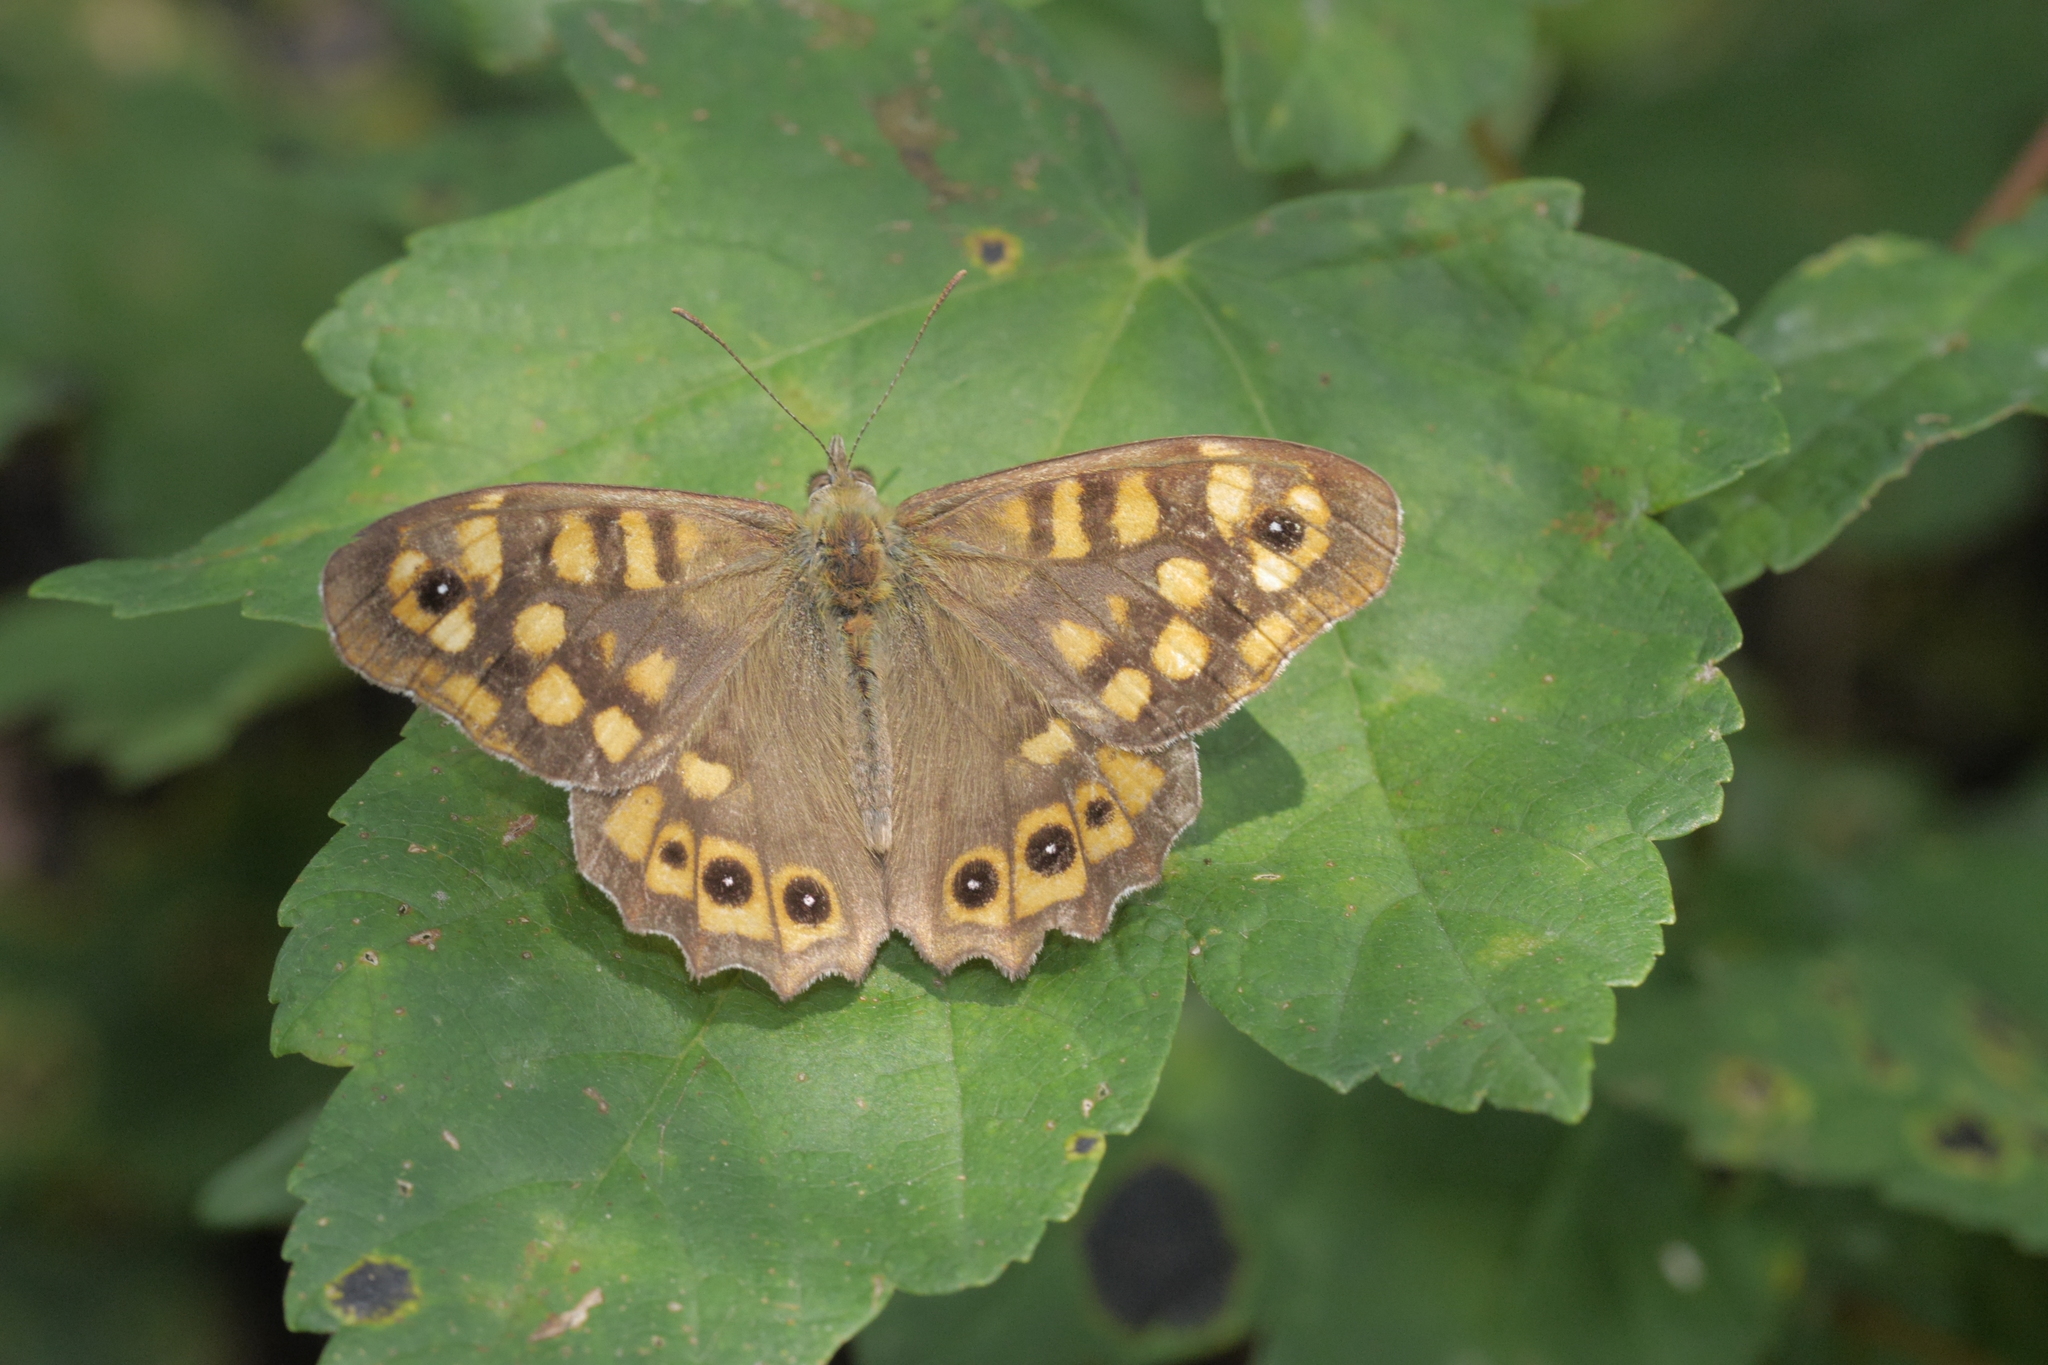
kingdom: Animalia
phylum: Arthropoda
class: Insecta
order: Lepidoptera
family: Nymphalidae
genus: Pararge
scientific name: Pararge aegeria
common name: Speckled wood
